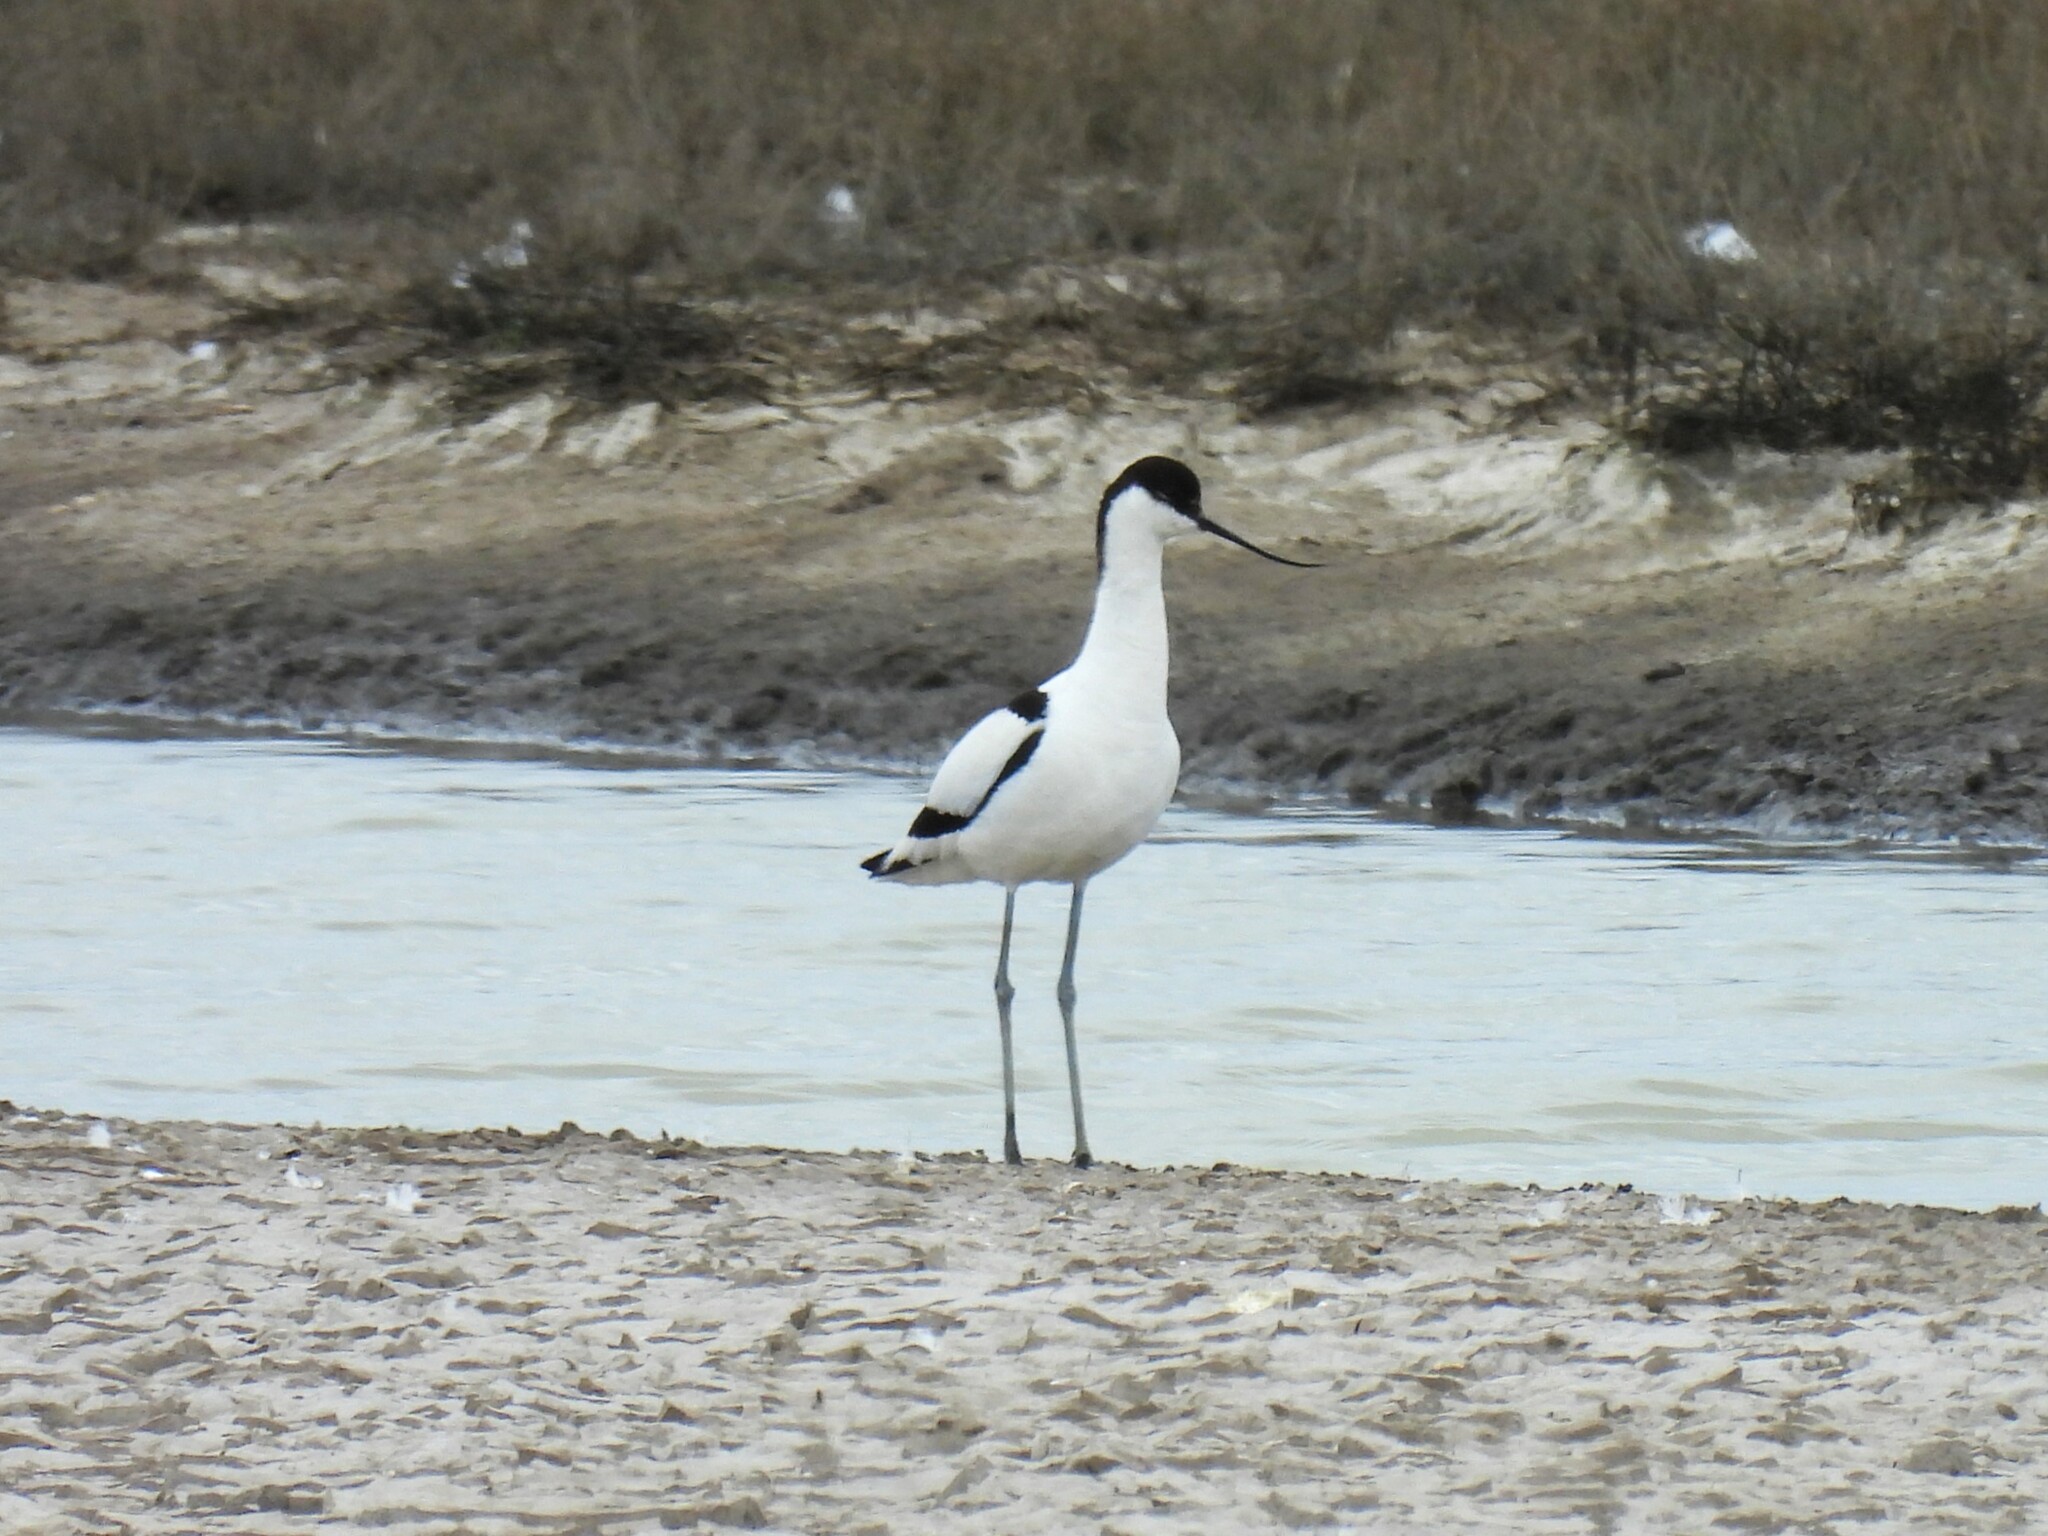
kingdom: Animalia
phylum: Chordata
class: Aves
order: Charadriiformes
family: Recurvirostridae
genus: Recurvirostra
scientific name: Recurvirostra avosetta
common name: Pied avocet
